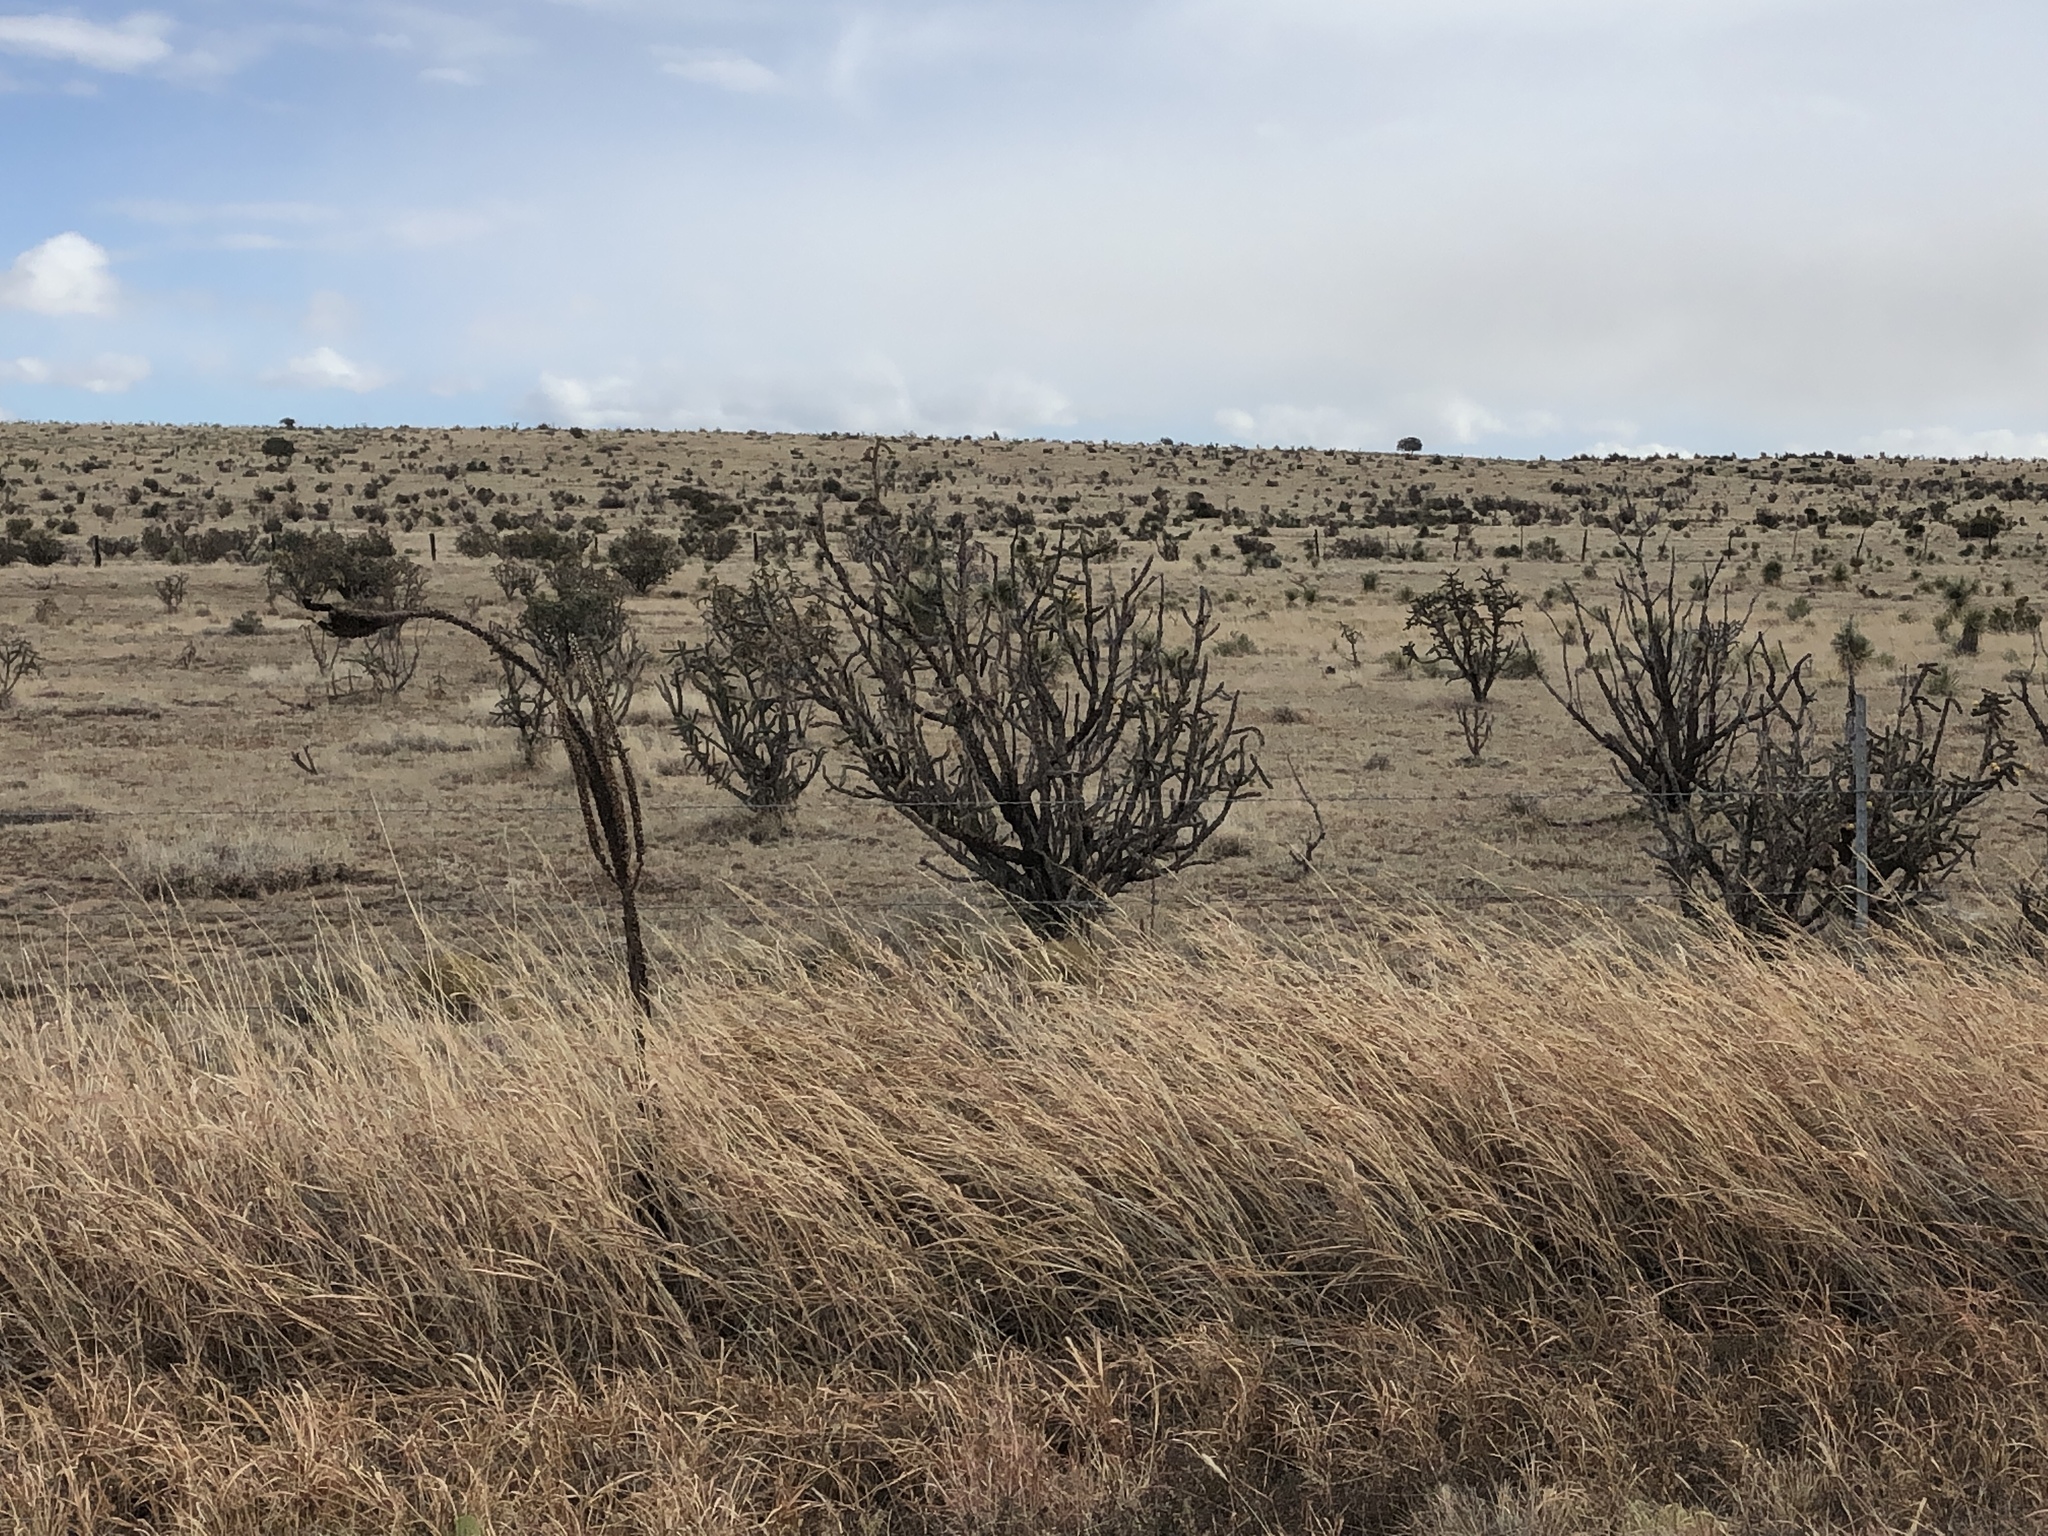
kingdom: Plantae
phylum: Tracheophyta
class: Magnoliopsida
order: Caryophyllales
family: Cactaceae
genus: Cylindropuntia
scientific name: Cylindropuntia imbricata
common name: Candelabrum cactus
